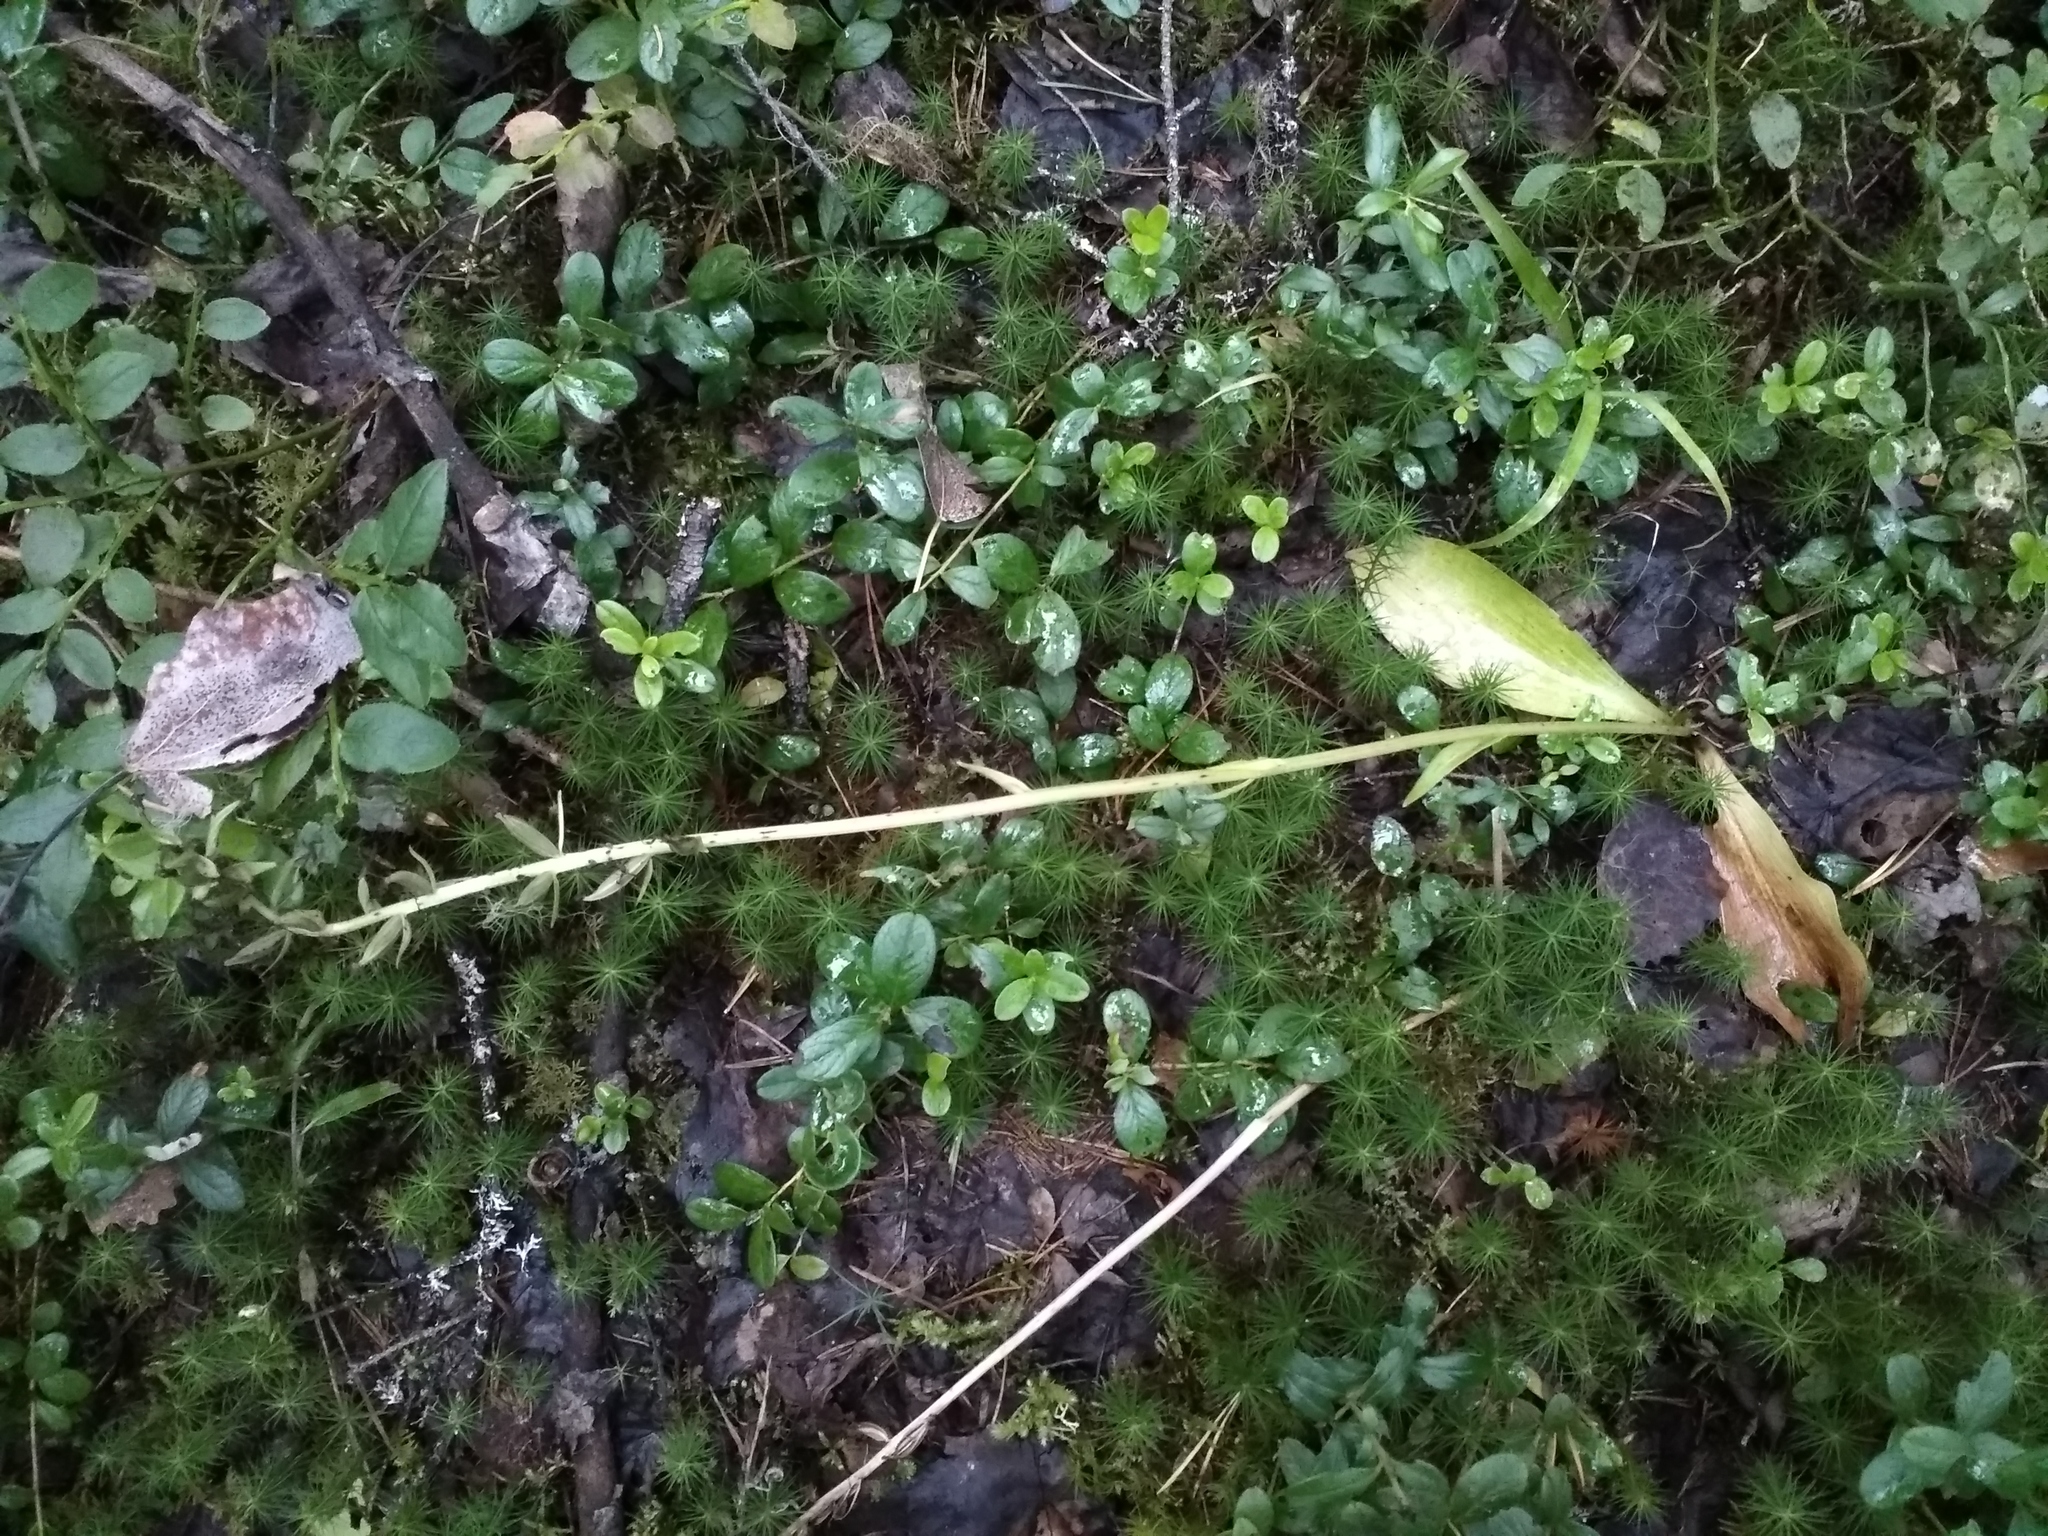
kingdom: Plantae
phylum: Tracheophyta
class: Liliopsida
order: Asparagales
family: Orchidaceae
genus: Platanthera
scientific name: Platanthera bifolia
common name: Lesser butterfly-orchid
